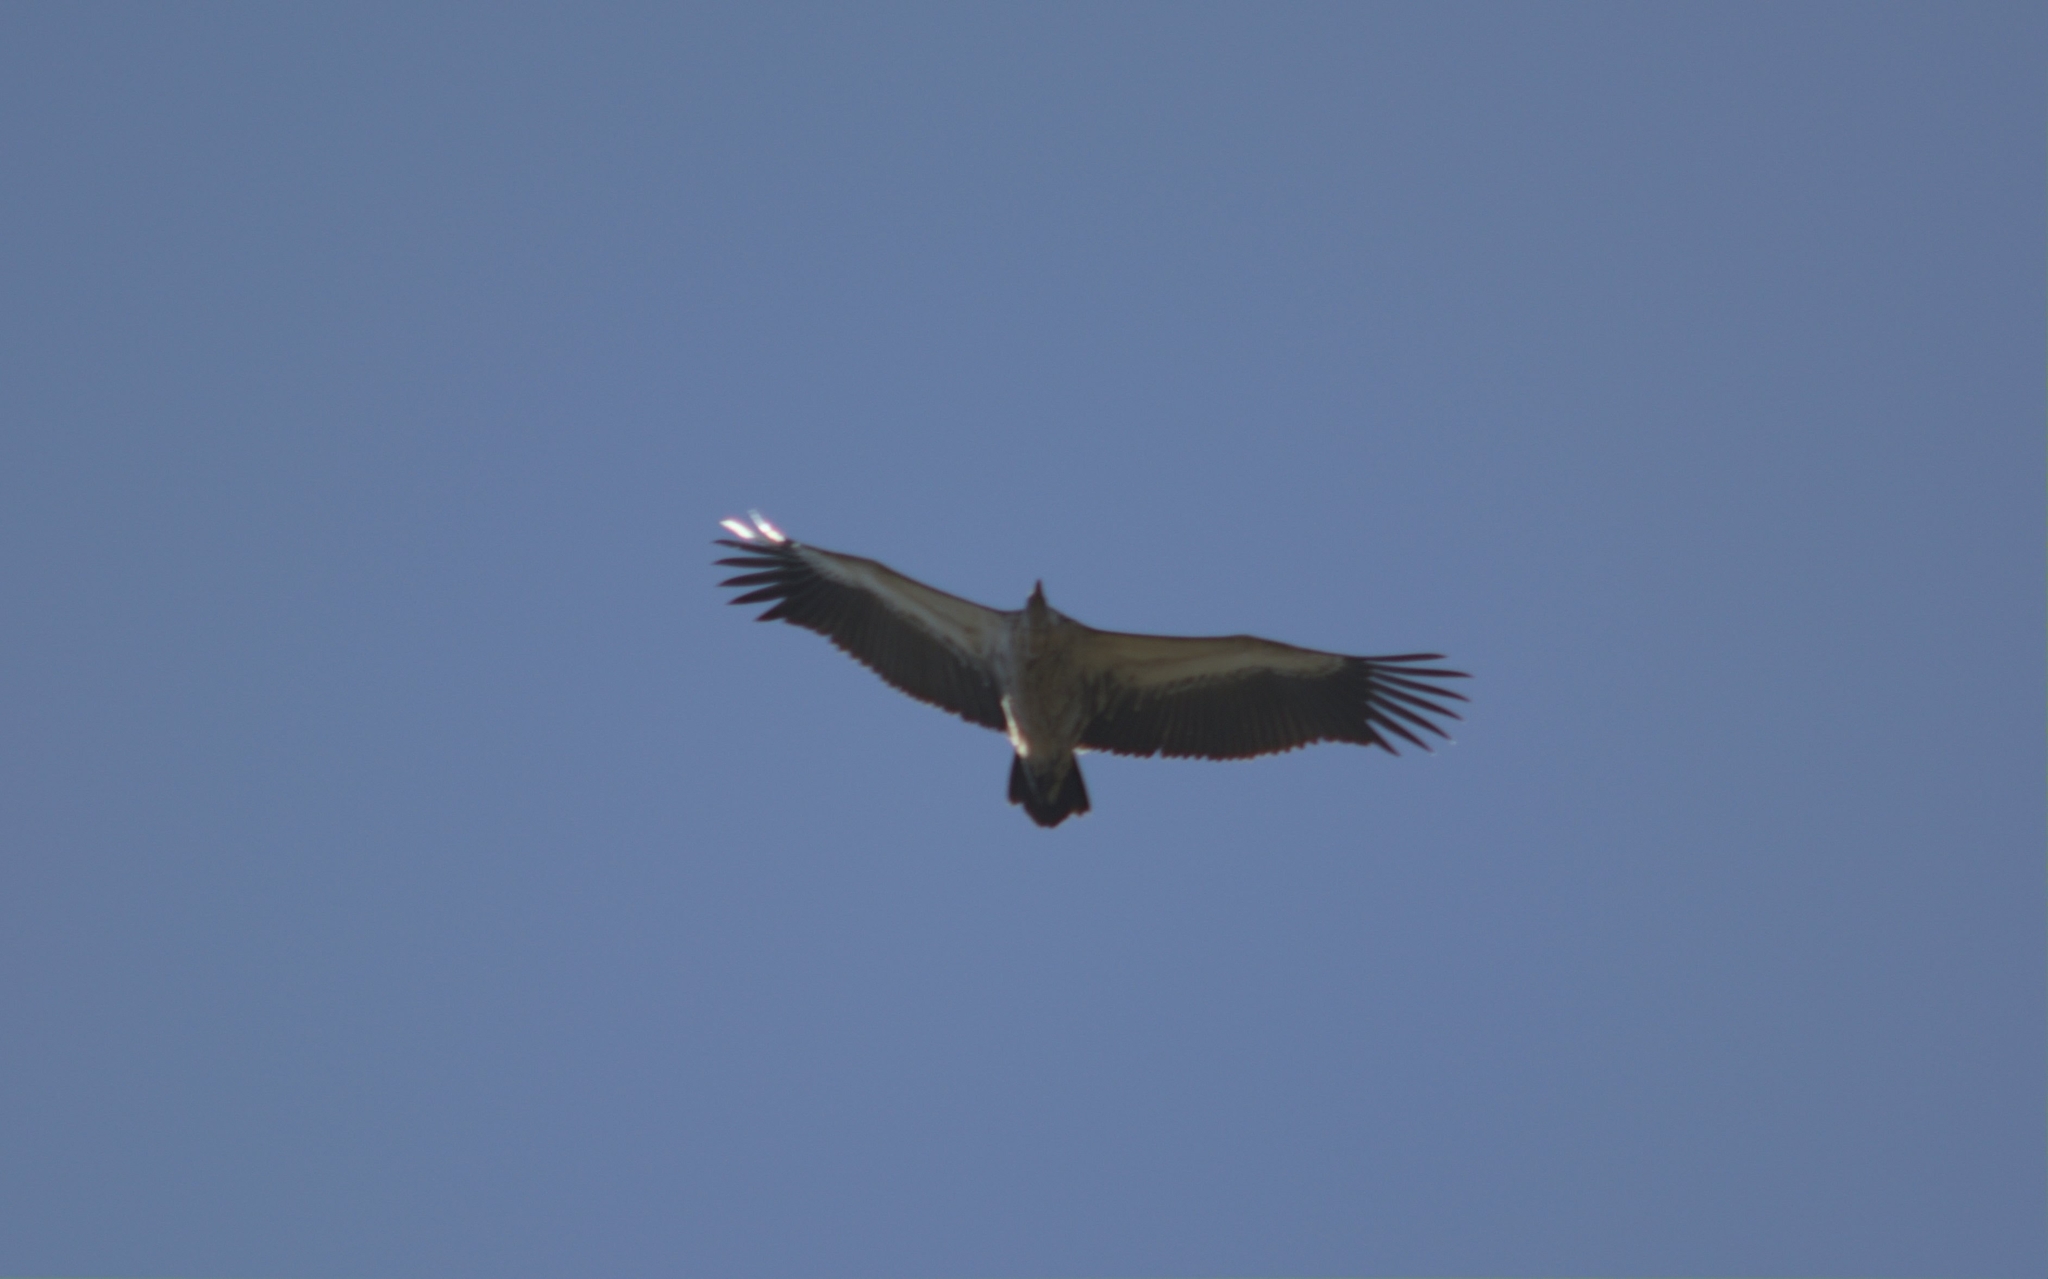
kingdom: Animalia
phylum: Chordata
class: Aves
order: Accipitriformes
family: Accipitridae
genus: Gyps
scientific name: Gyps coprotheres
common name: Cape vulture
